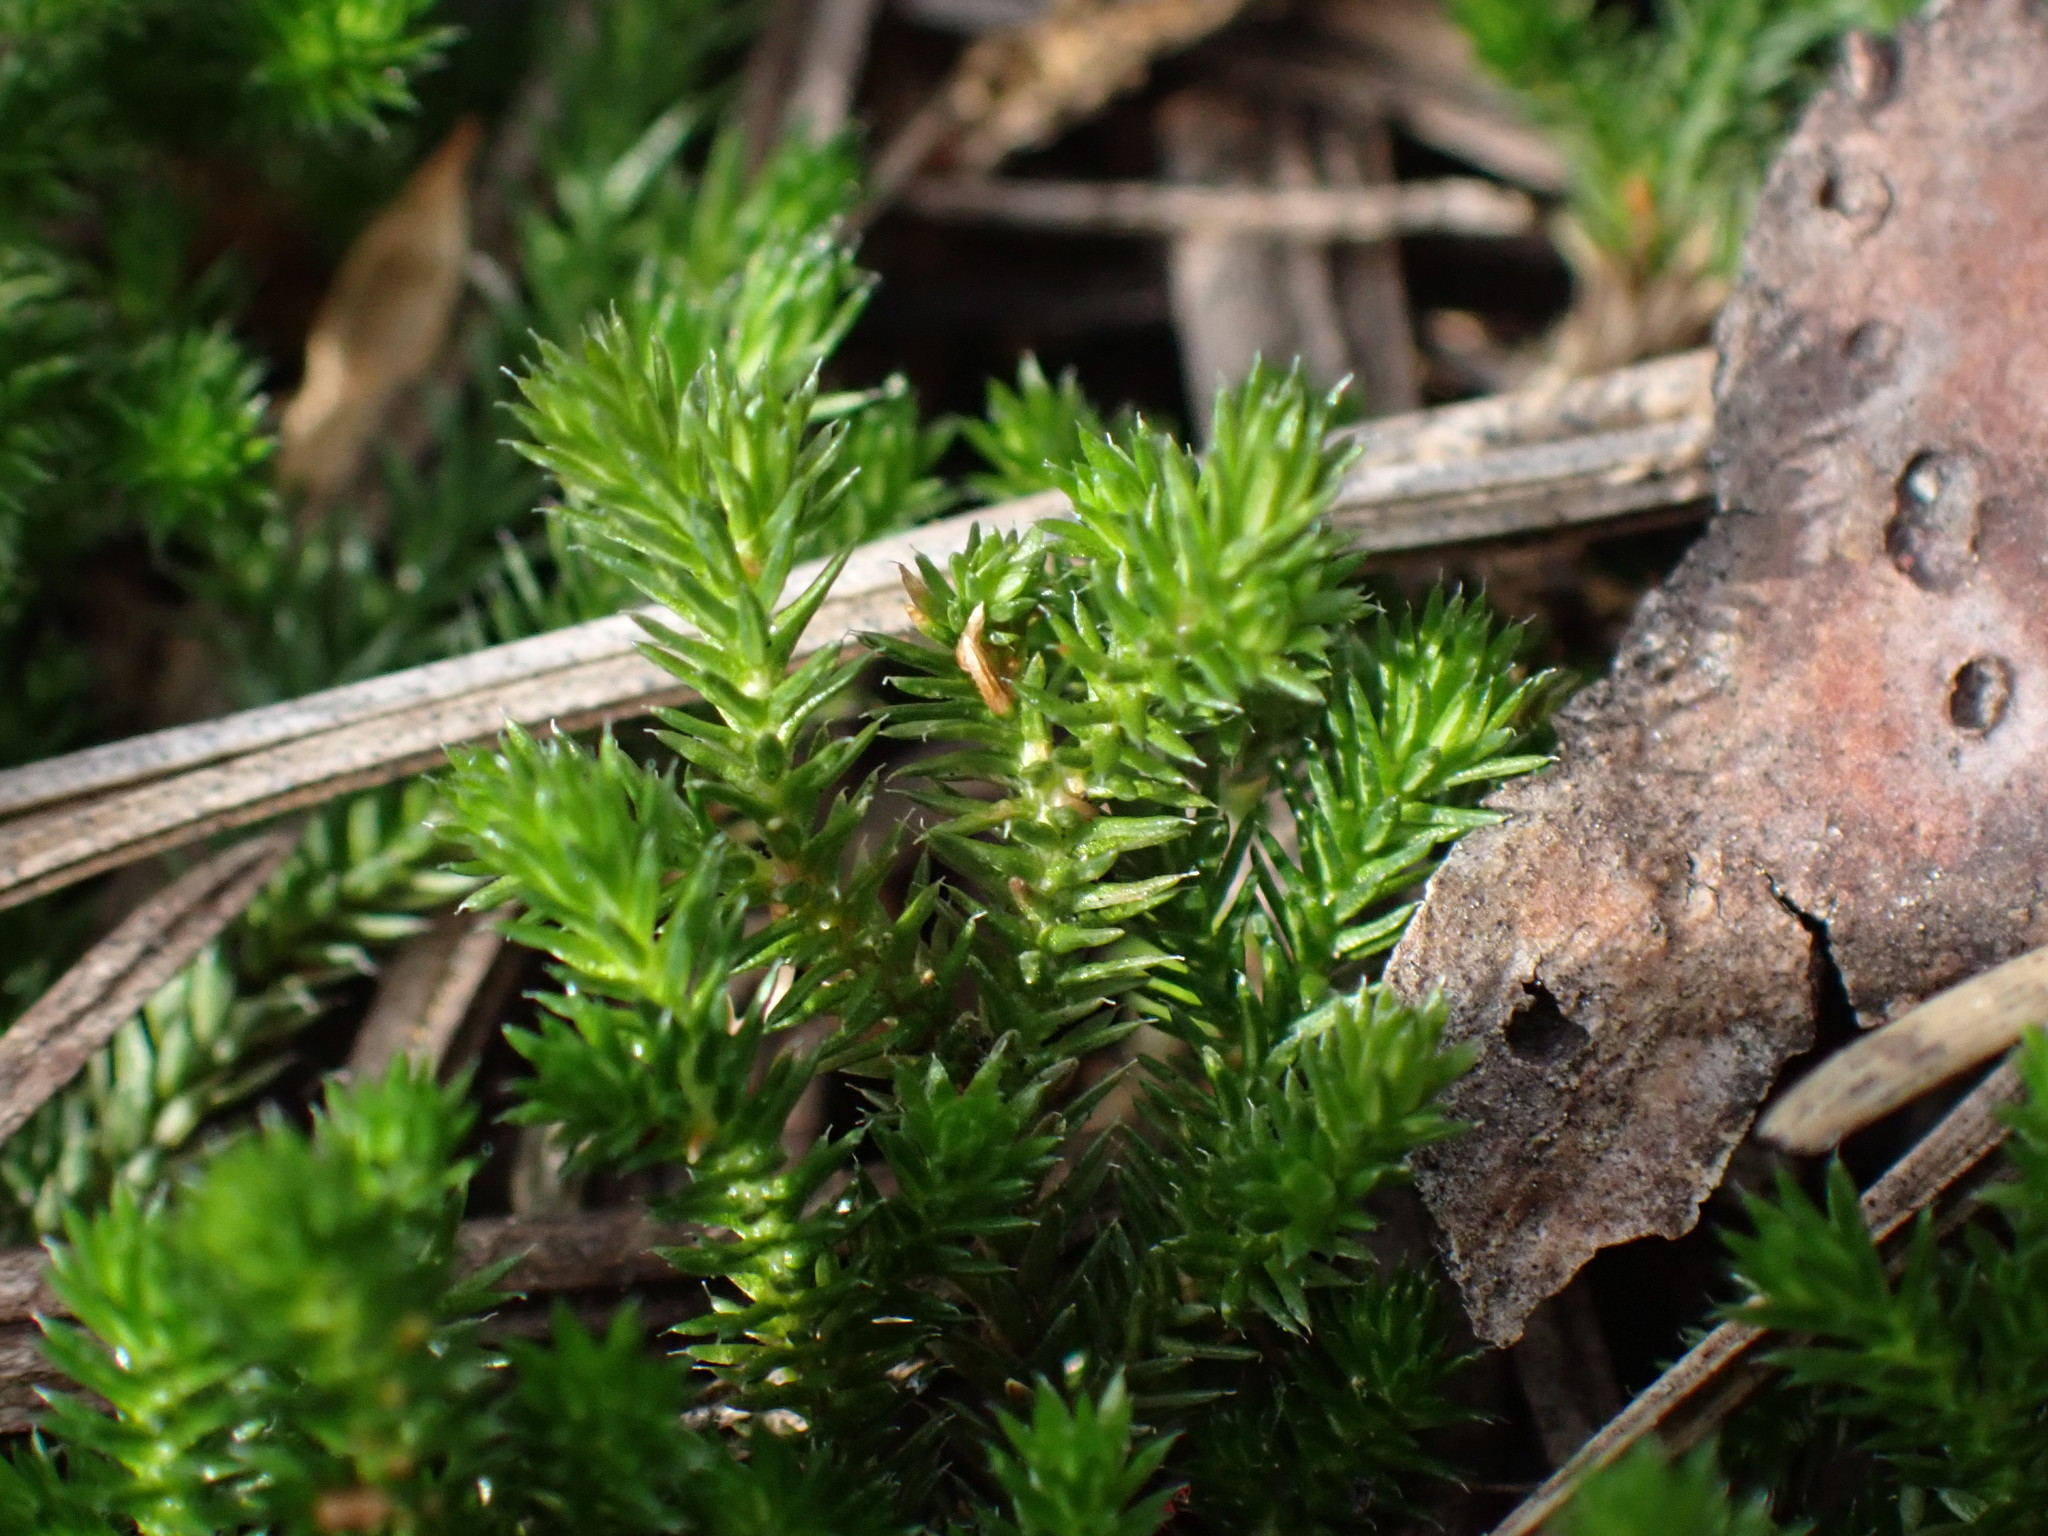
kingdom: Plantae
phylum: Tracheophyta
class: Lycopodiopsida
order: Selaginellales
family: Selaginellaceae
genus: Selaginella
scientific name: Selaginella wallacei
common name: Wallace's selaginella
